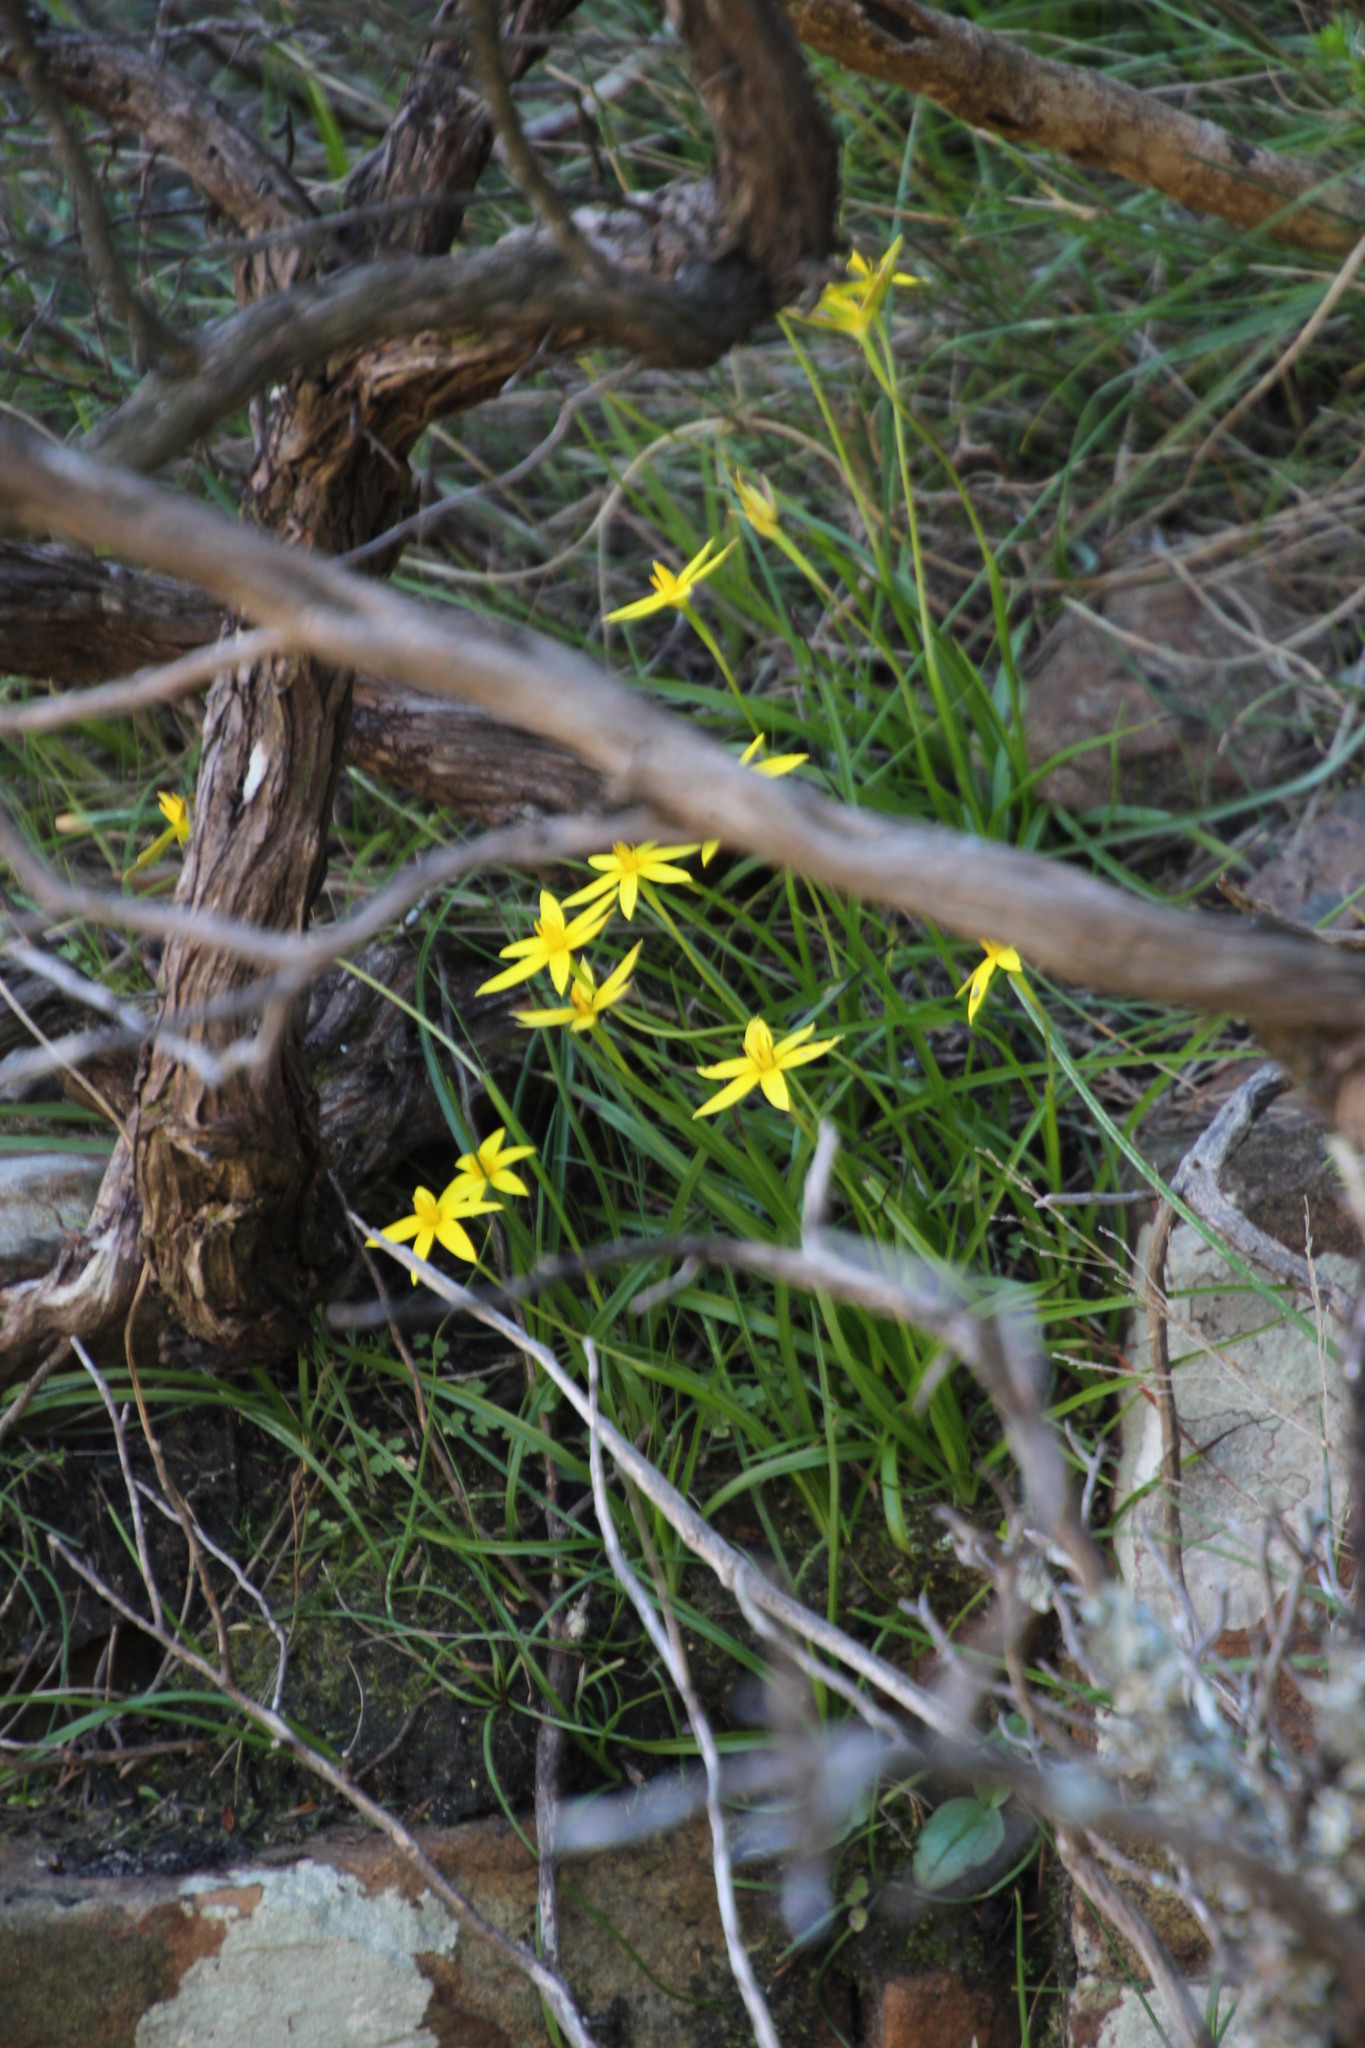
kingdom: Plantae
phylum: Tracheophyta
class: Liliopsida
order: Asparagales
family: Hypoxidaceae
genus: Pauridia
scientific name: Pauridia capensis
